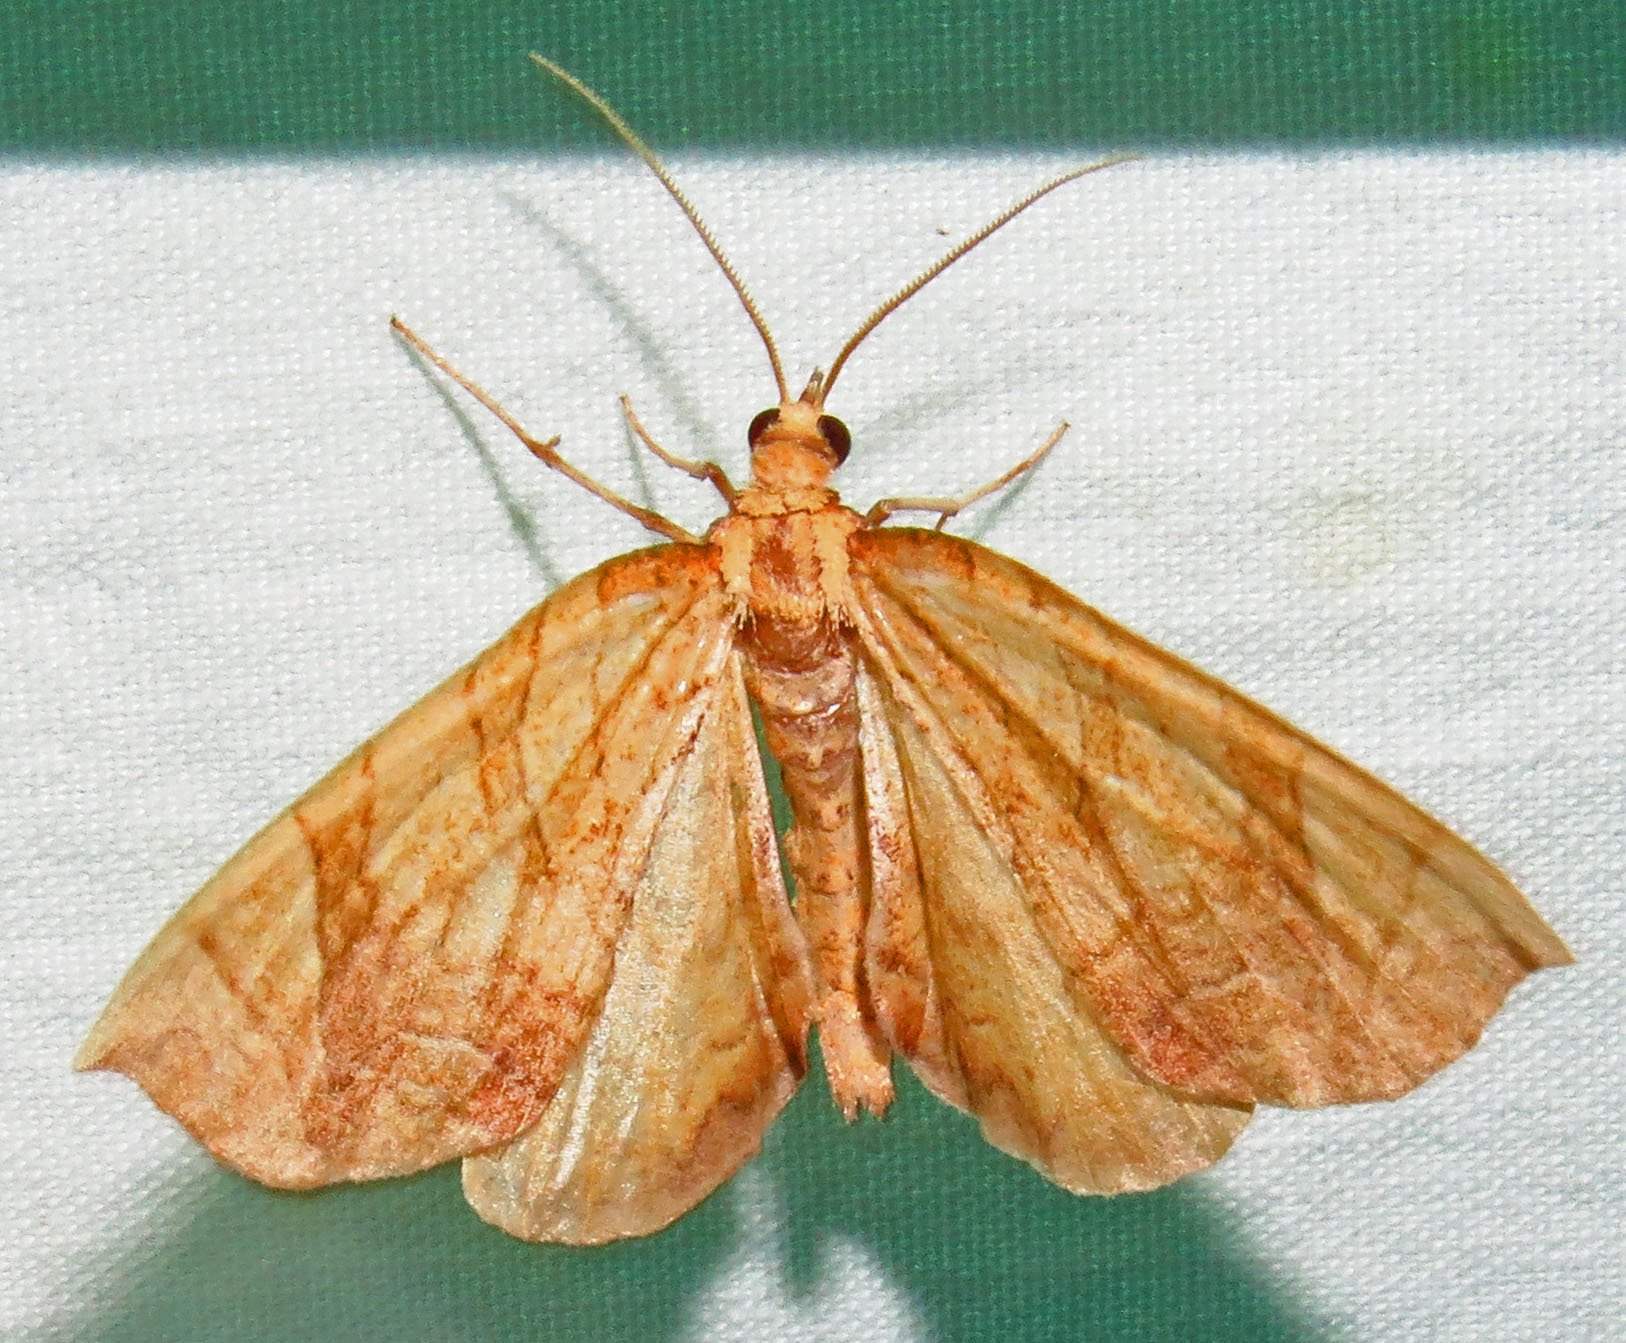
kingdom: Animalia
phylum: Arthropoda
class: Insecta
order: Lepidoptera
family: Geometridae
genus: Eulithis
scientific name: Eulithis
